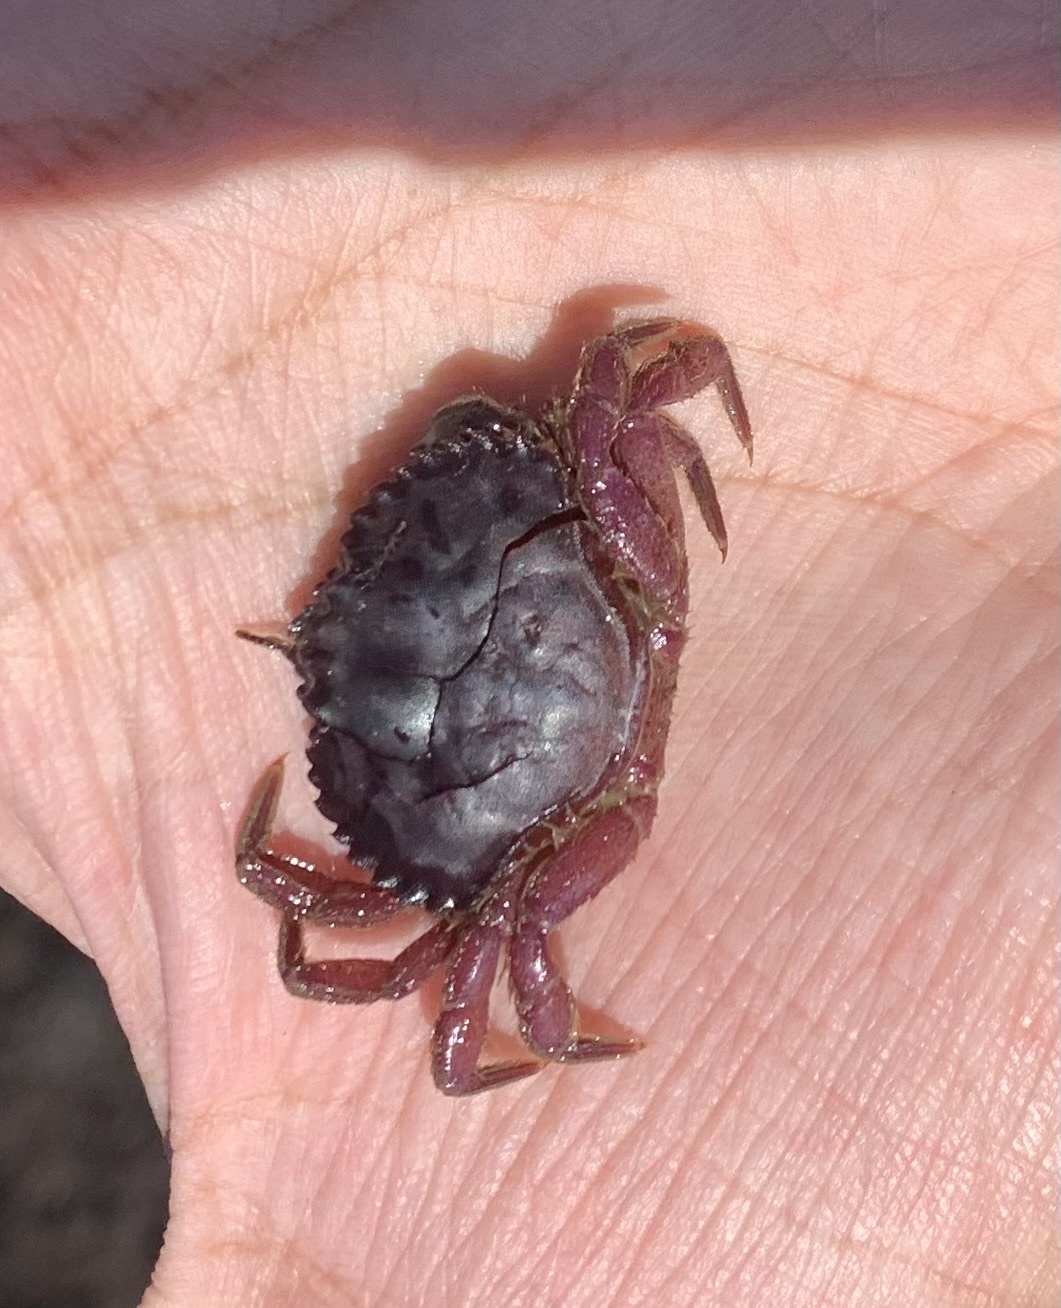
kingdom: Animalia
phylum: Arthropoda
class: Malacostraca
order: Decapoda
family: Cancridae
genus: Romaleon
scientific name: Romaleon antennarium
